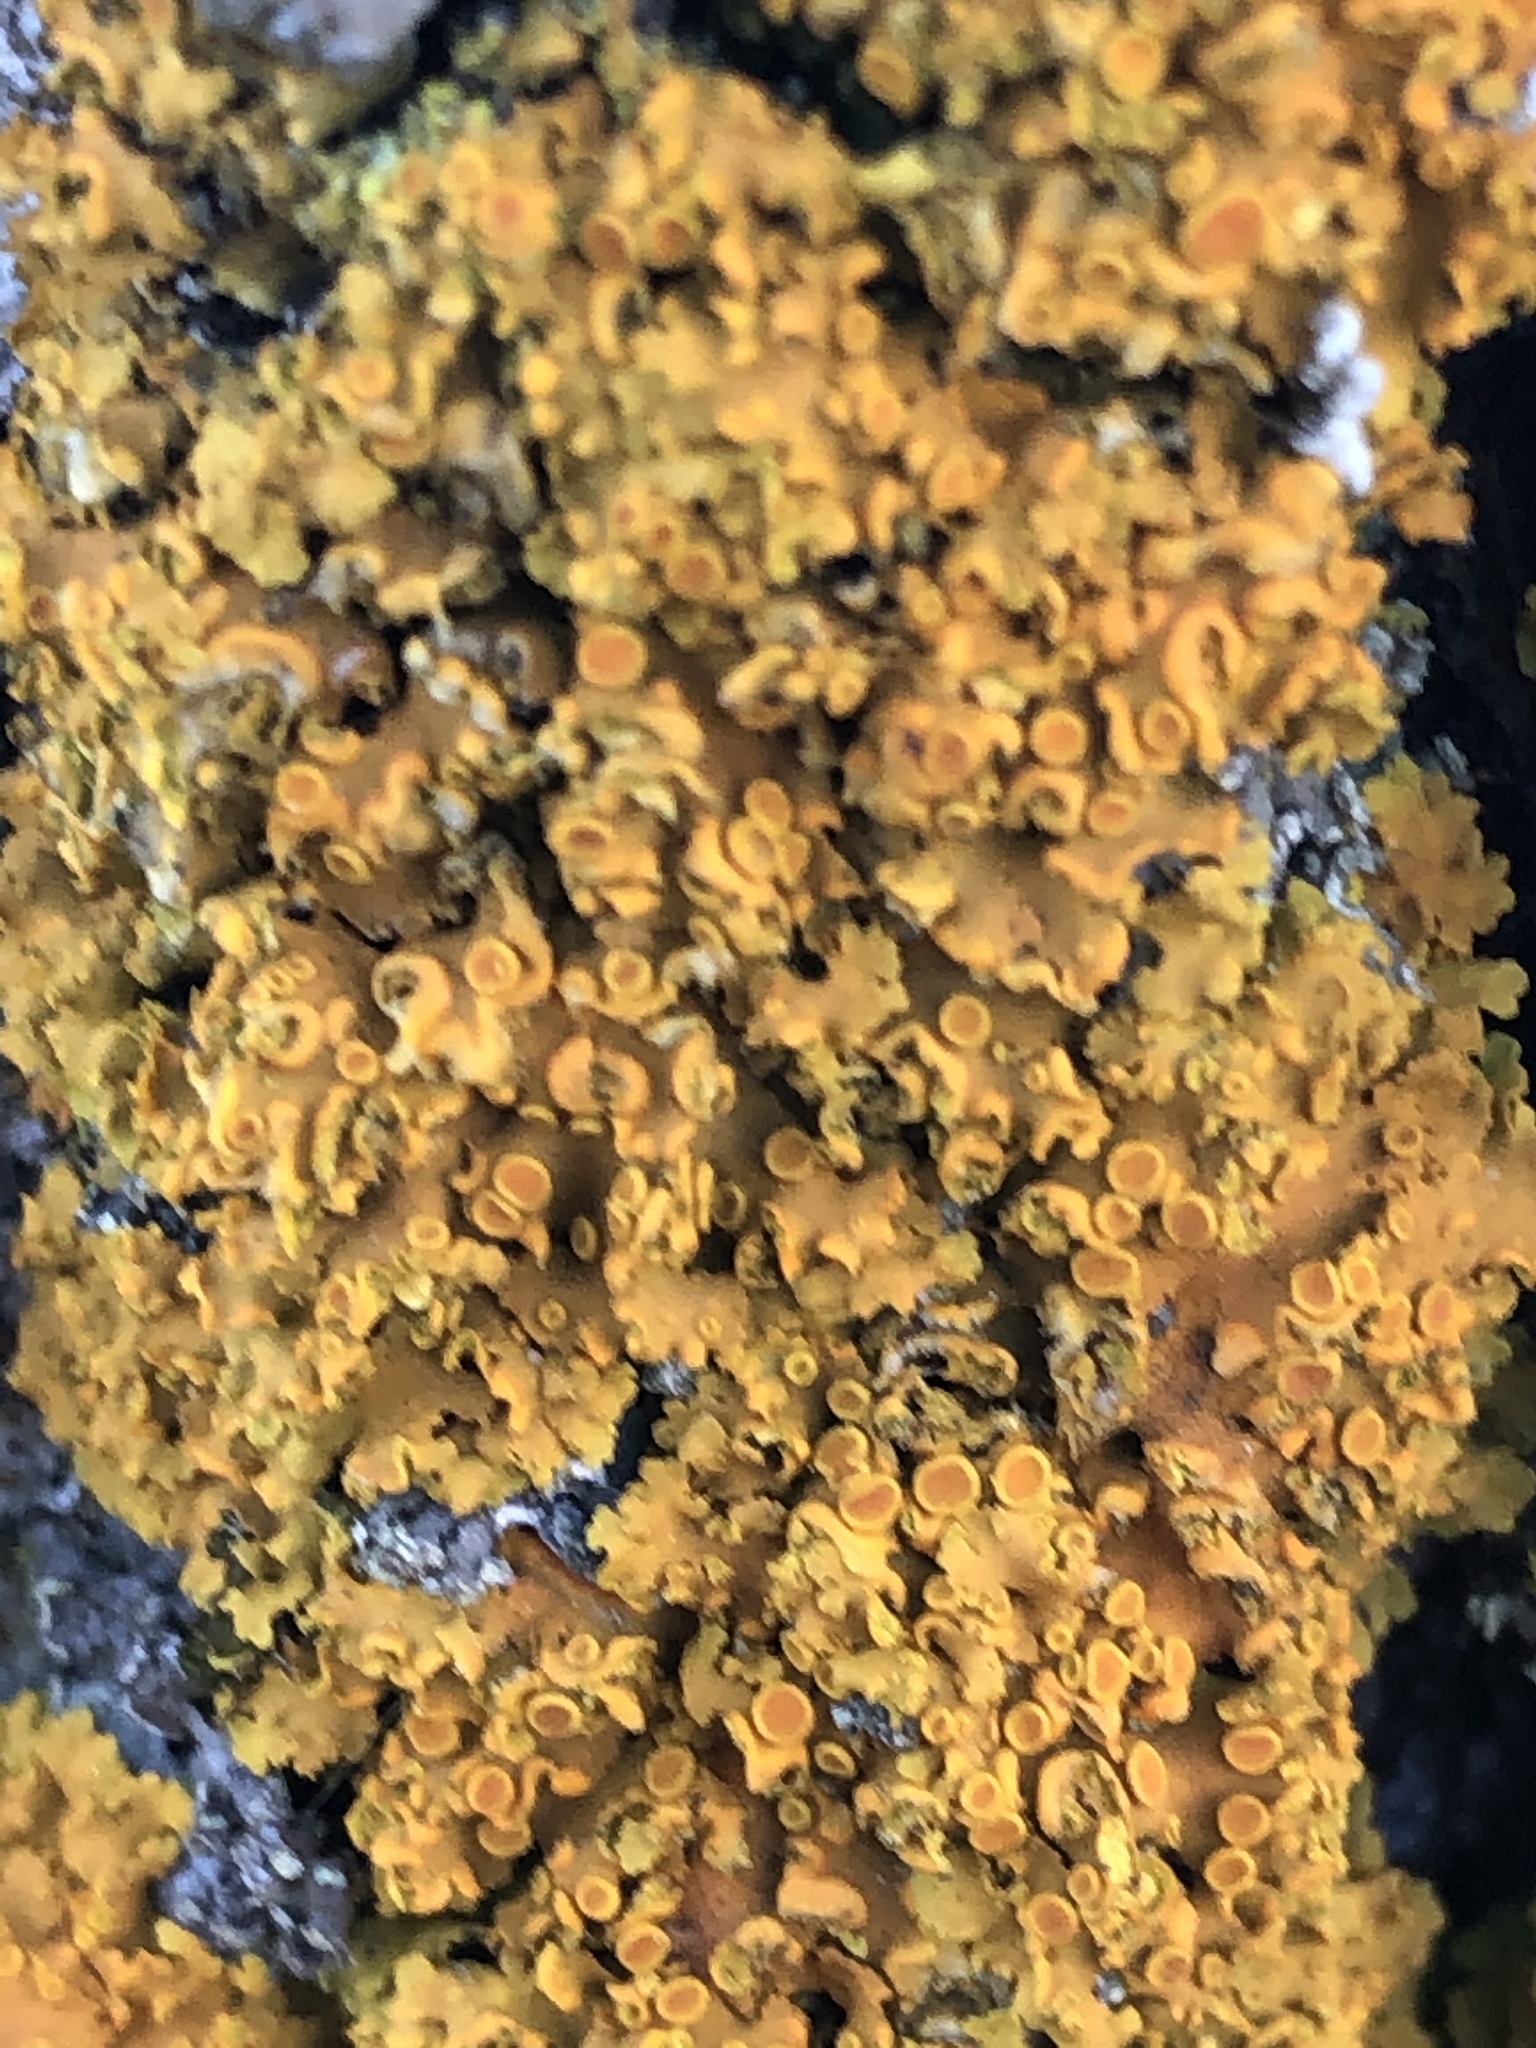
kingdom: Fungi
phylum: Ascomycota
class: Lecanoromycetes
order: Teloschistales
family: Teloschistaceae
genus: Oxneria
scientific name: Oxneria fallax
